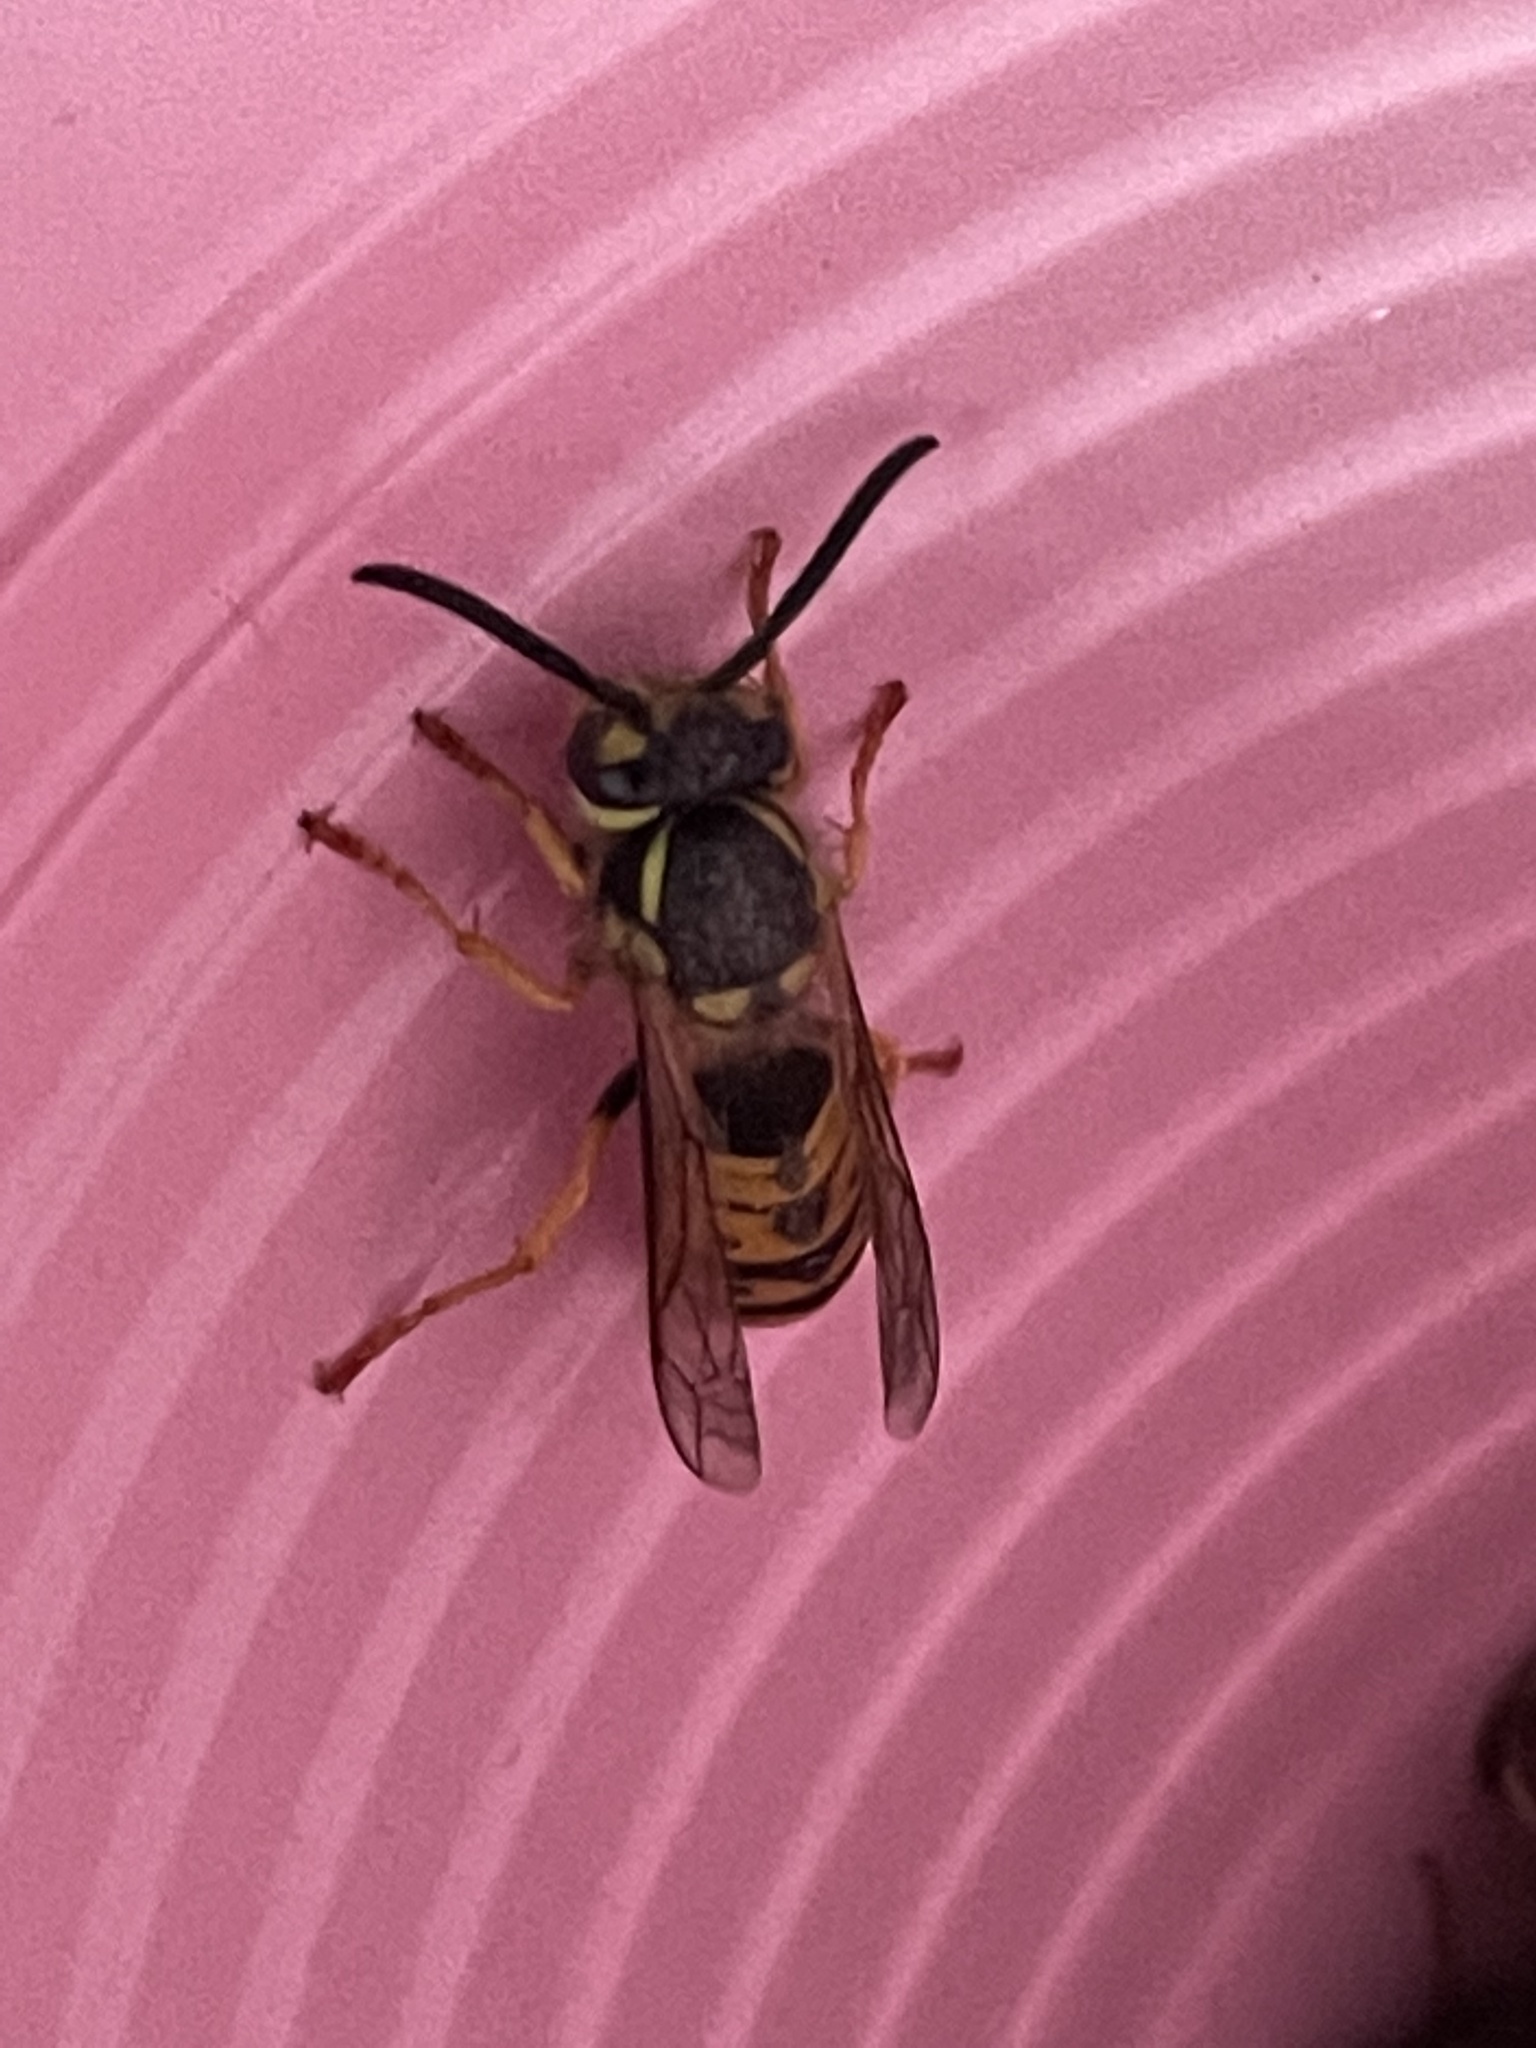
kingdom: Animalia
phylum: Arthropoda
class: Insecta
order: Hymenoptera
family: Vespidae
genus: Vespula
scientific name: Vespula germanica
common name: German wasp
